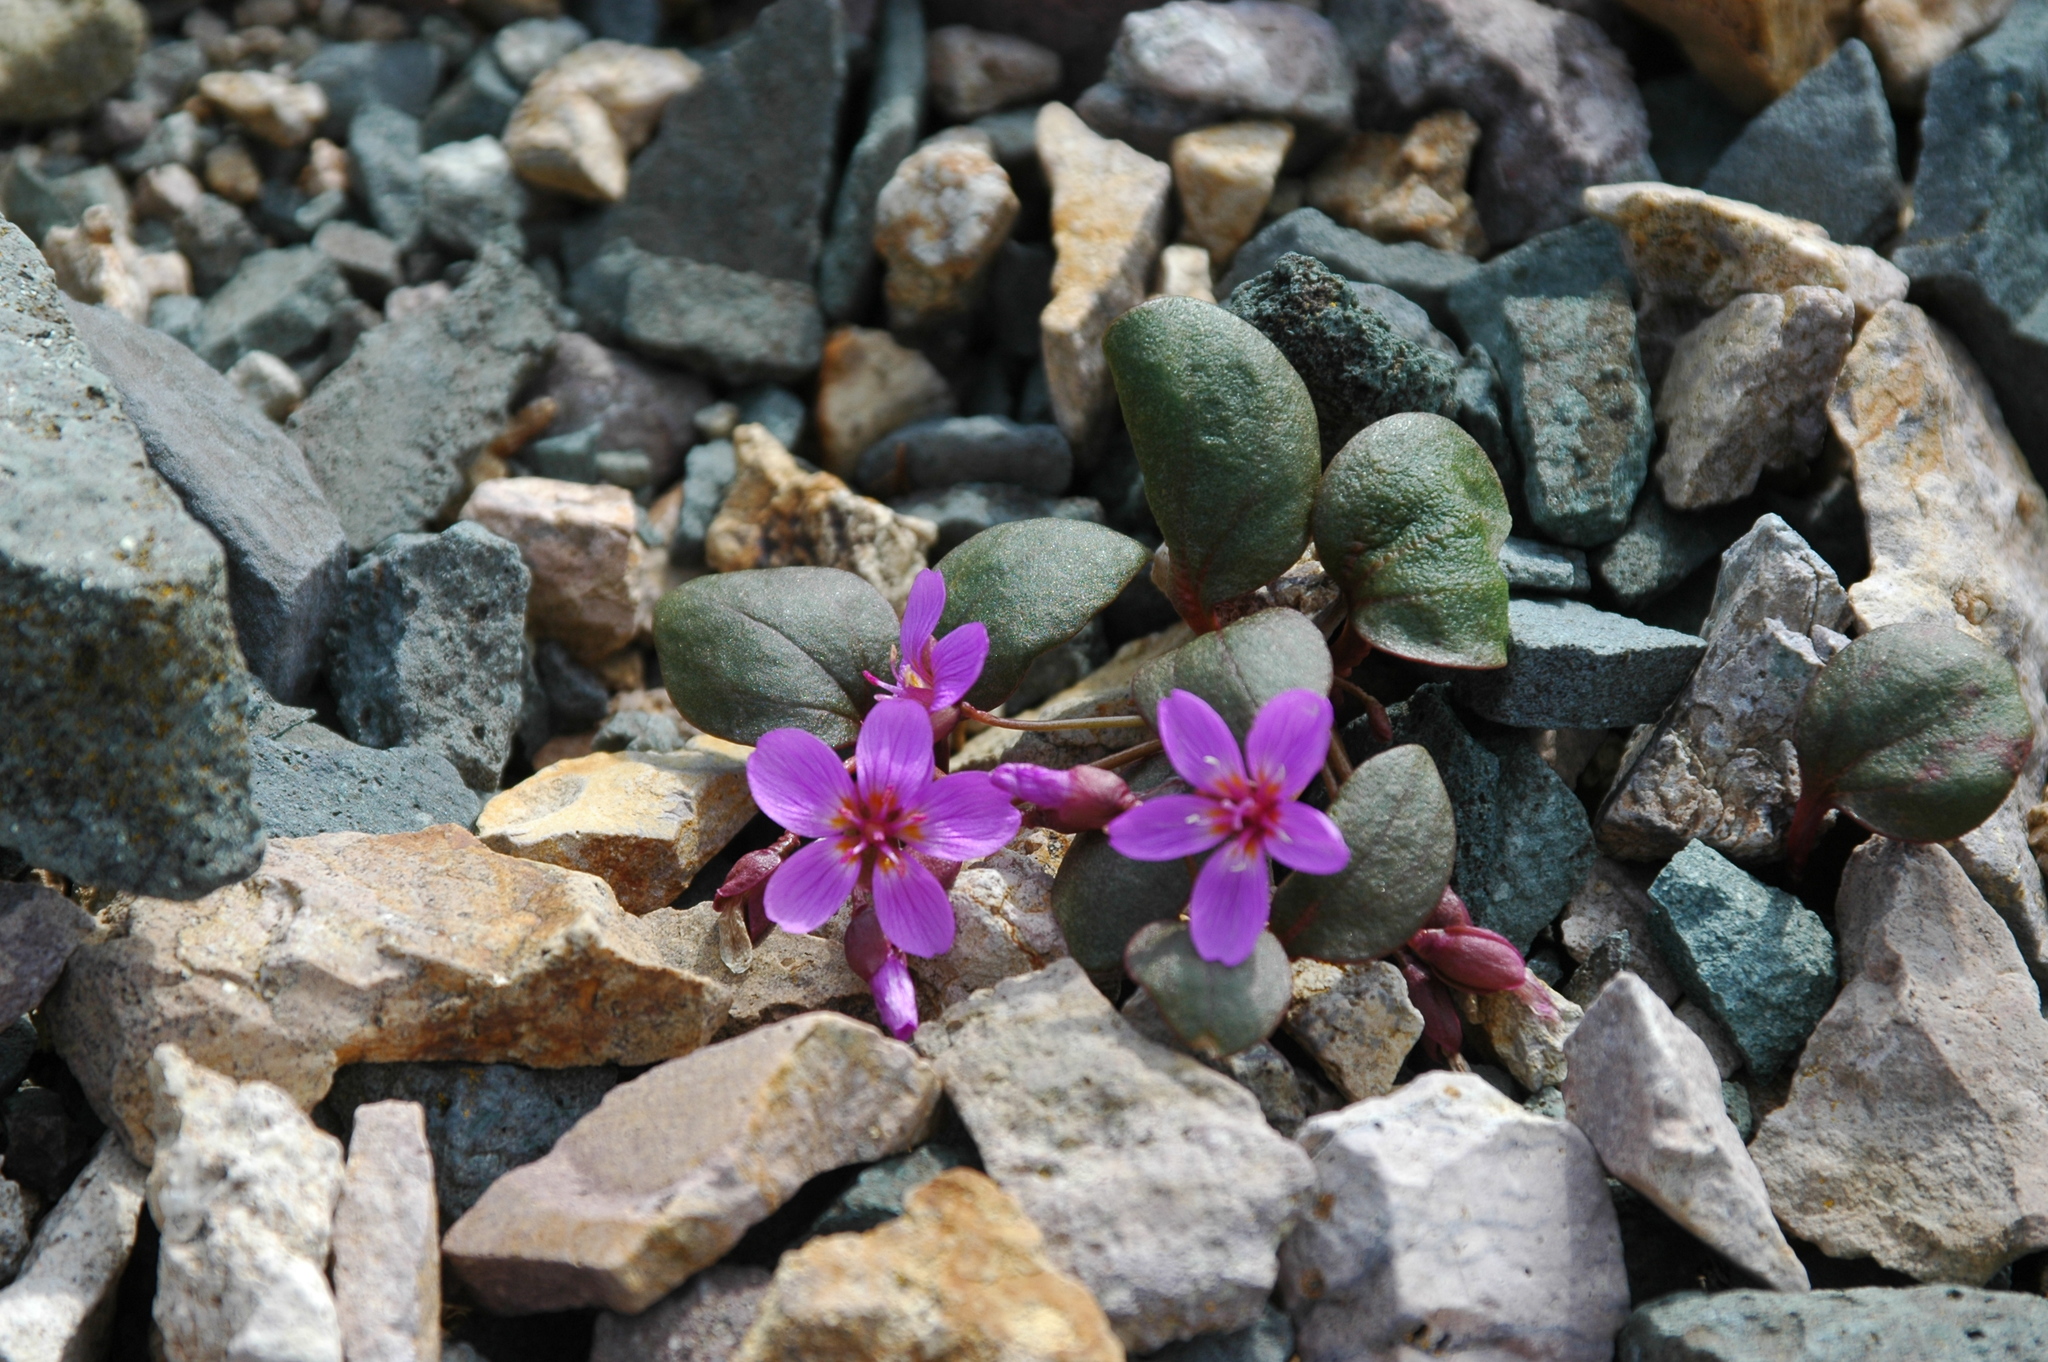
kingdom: Plantae
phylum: Tracheophyta
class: Magnoliopsida
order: Caryophyllales
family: Montiaceae
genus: Claytonia
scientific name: Claytonia ogilviensis
